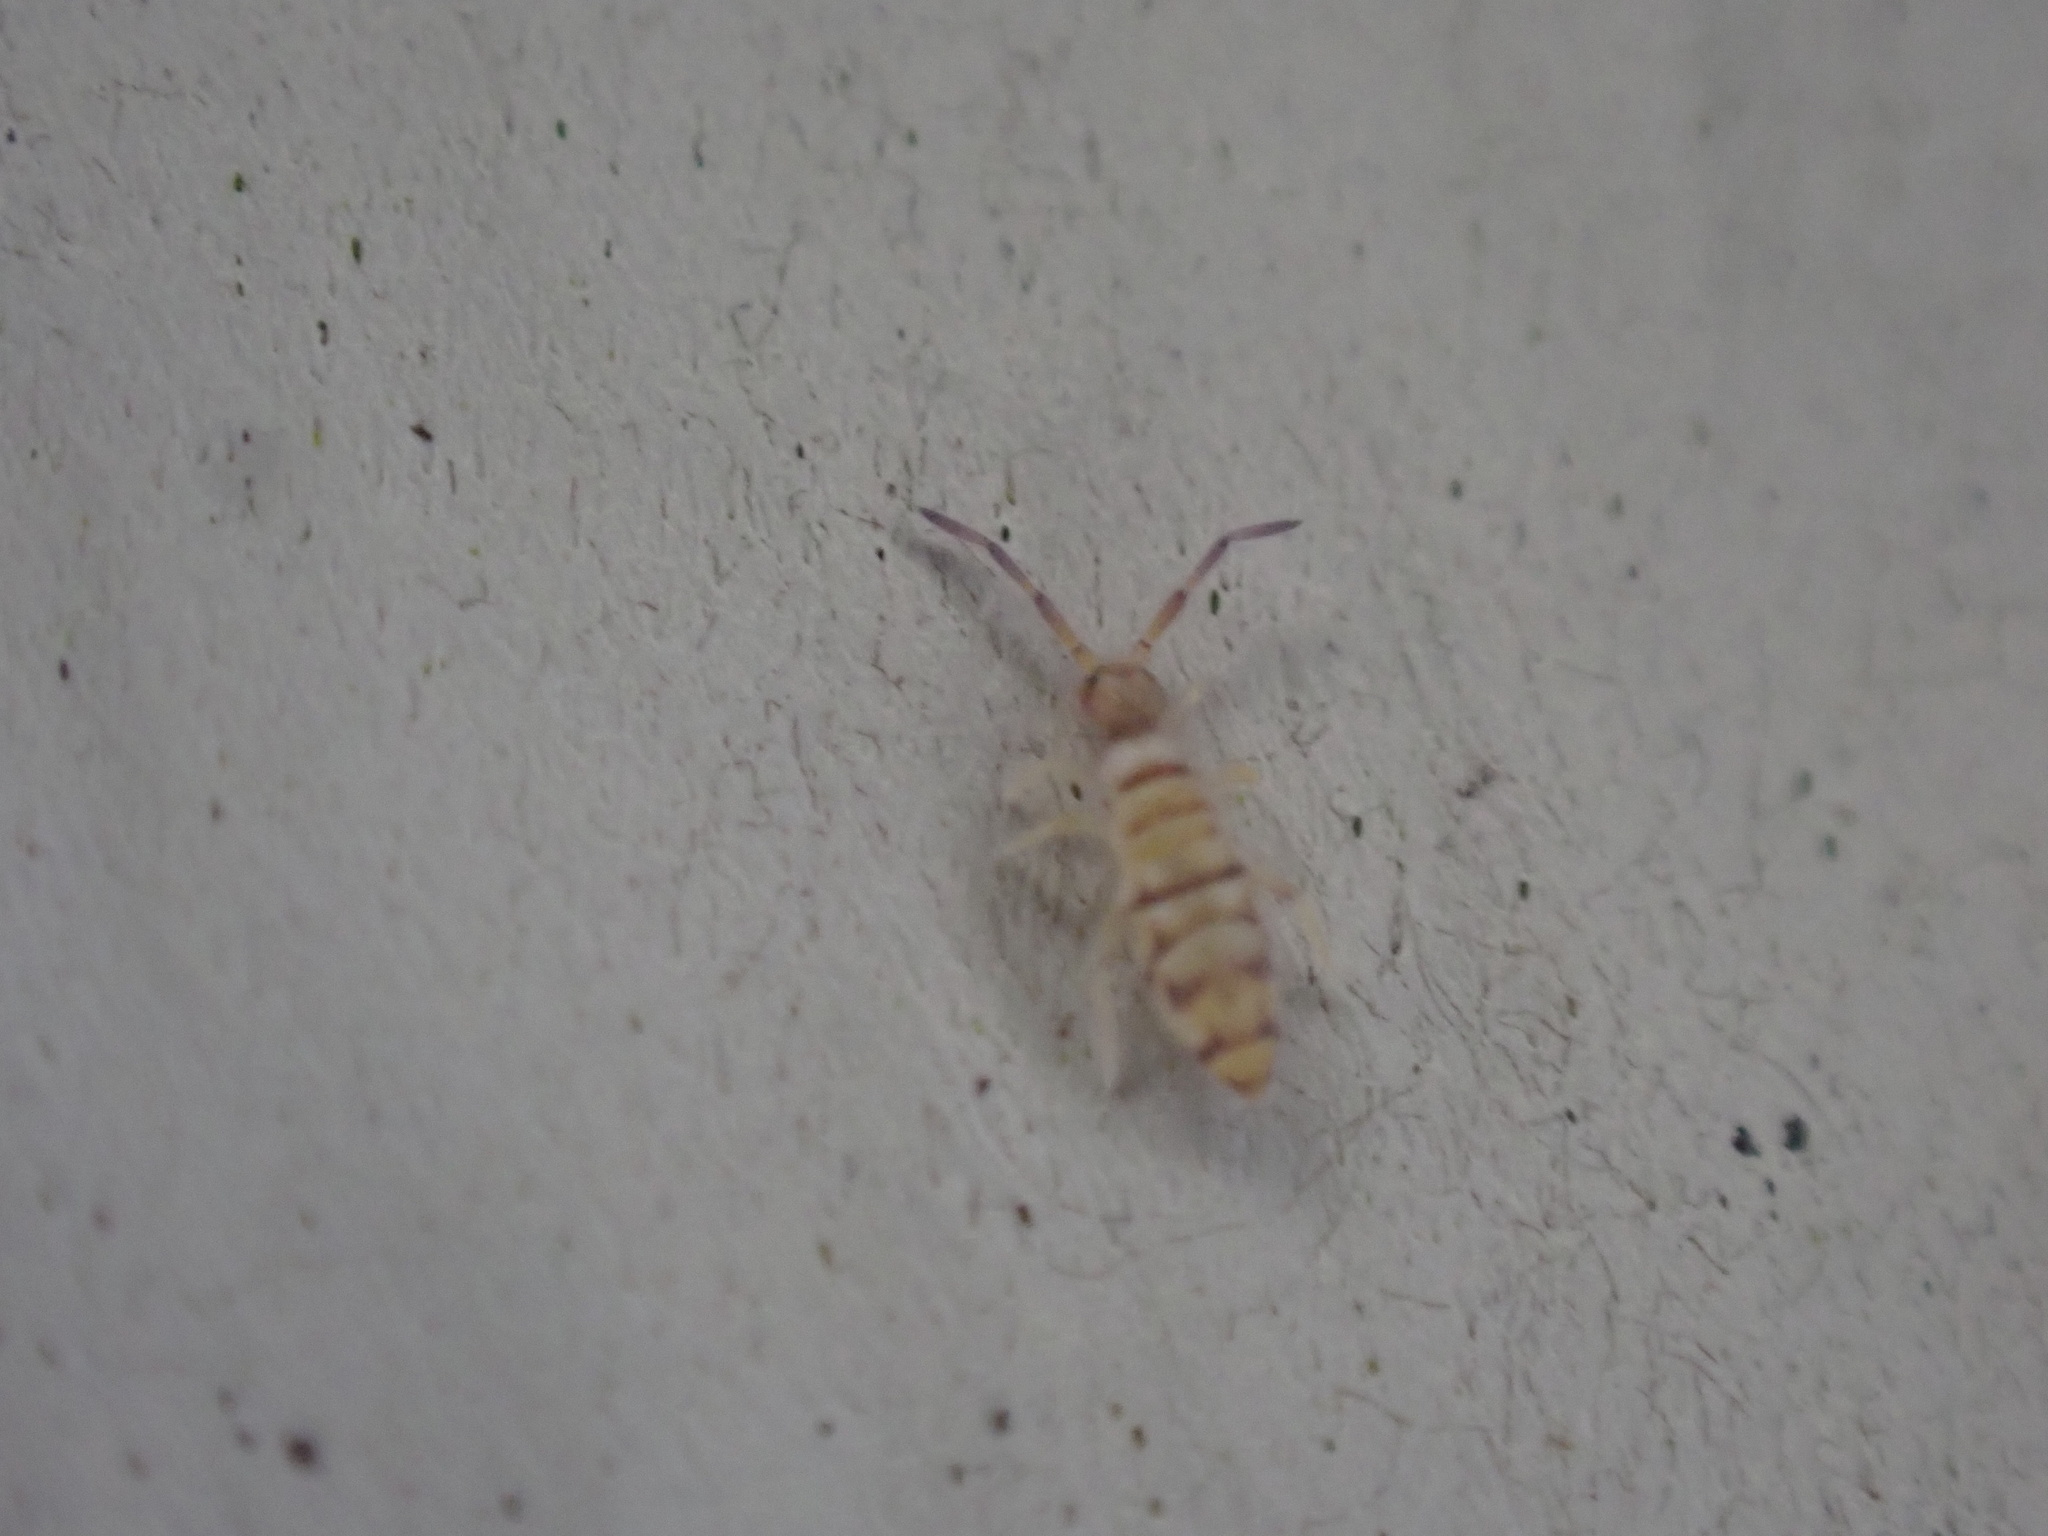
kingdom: Animalia
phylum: Arthropoda
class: Collembola
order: Entomobryomorpha
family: Entomobryidae
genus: Entomobrya
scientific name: Entomobrya atrocincta
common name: Springtail
